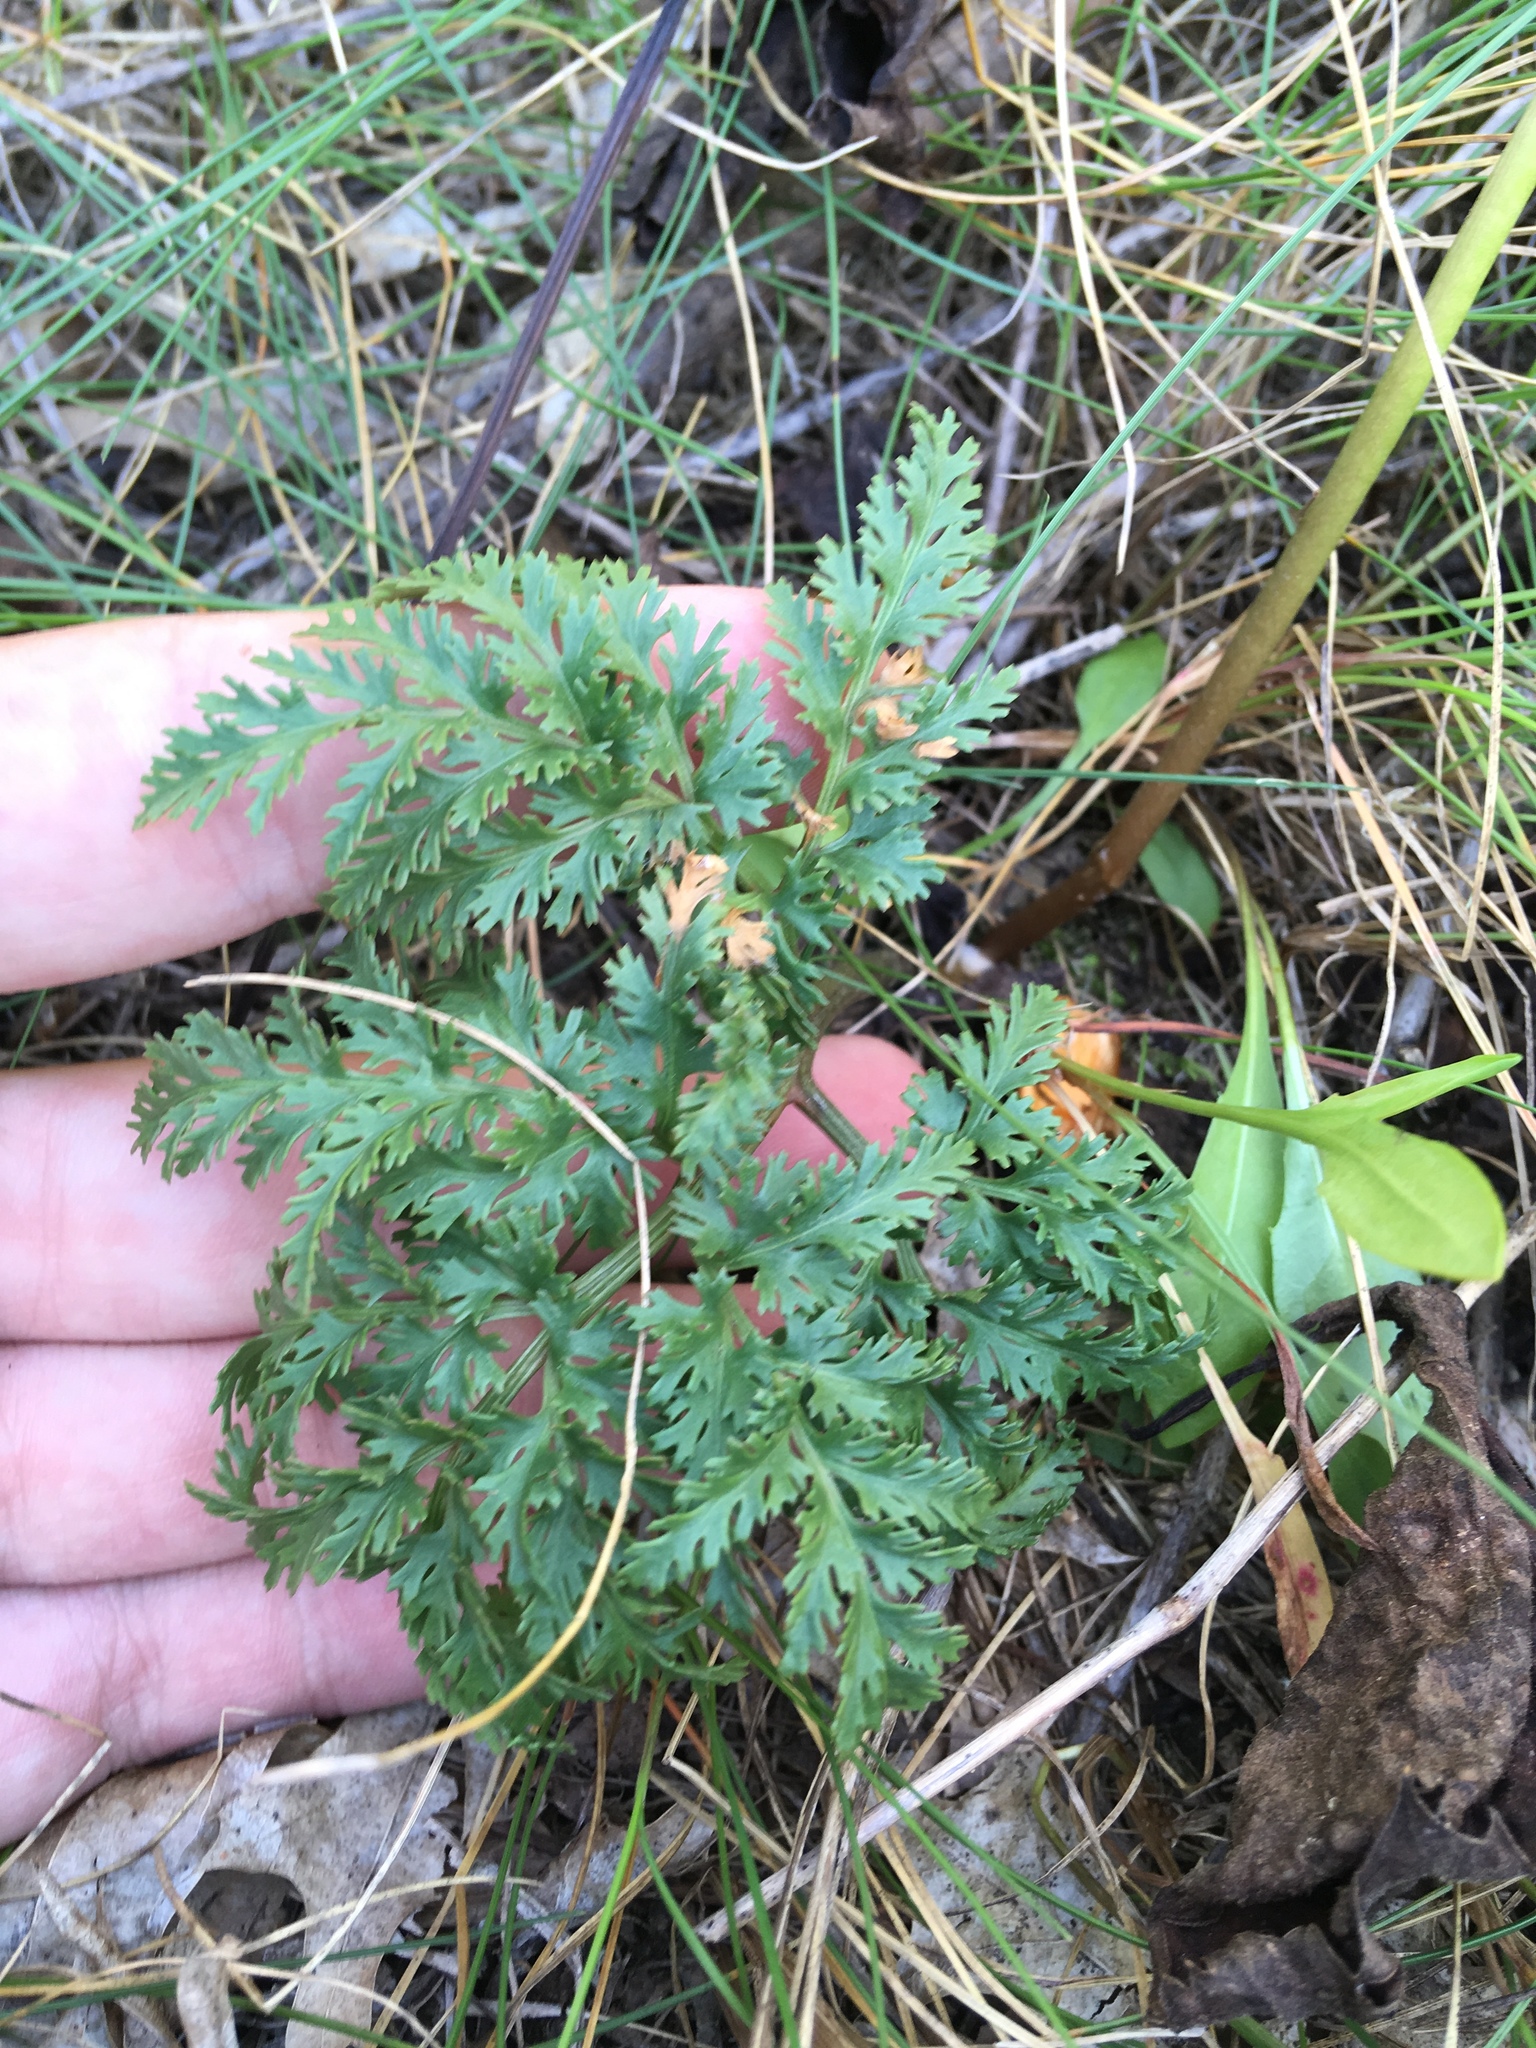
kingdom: Plantae
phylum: Tracheophyta
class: Polypodiopsida
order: Ophioglossales
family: Ophioglossaceae
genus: Sceptridium
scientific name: Sceptridium dissectum
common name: Cut-leaved grapefern
